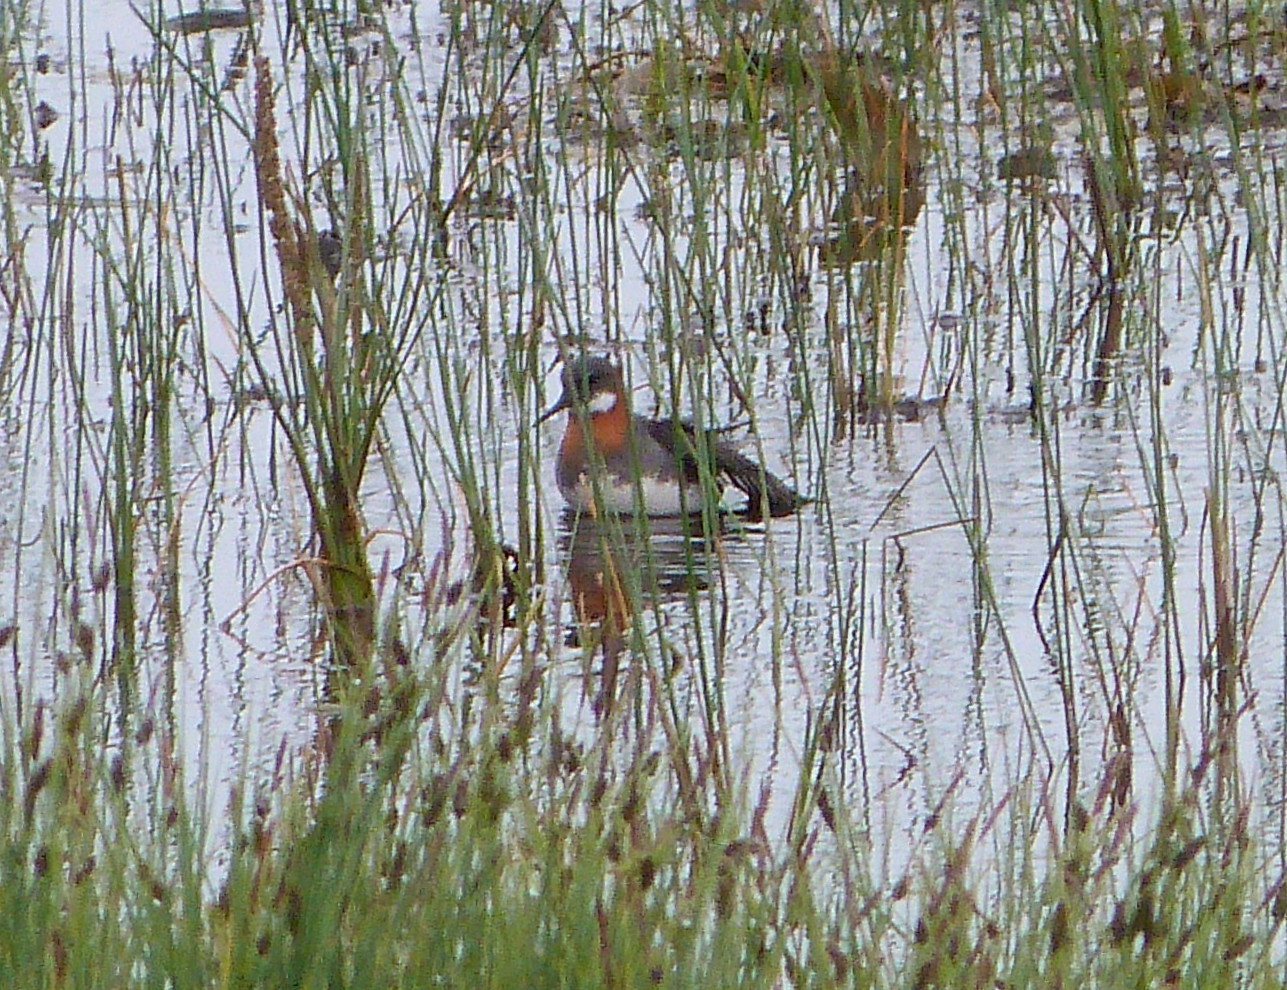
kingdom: Animalia
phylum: Chordata
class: Aves
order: Charadriiformes
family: Scolopacidae
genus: Phalaropus
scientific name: Phalaropus lobatus
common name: Red-necked phalarope
